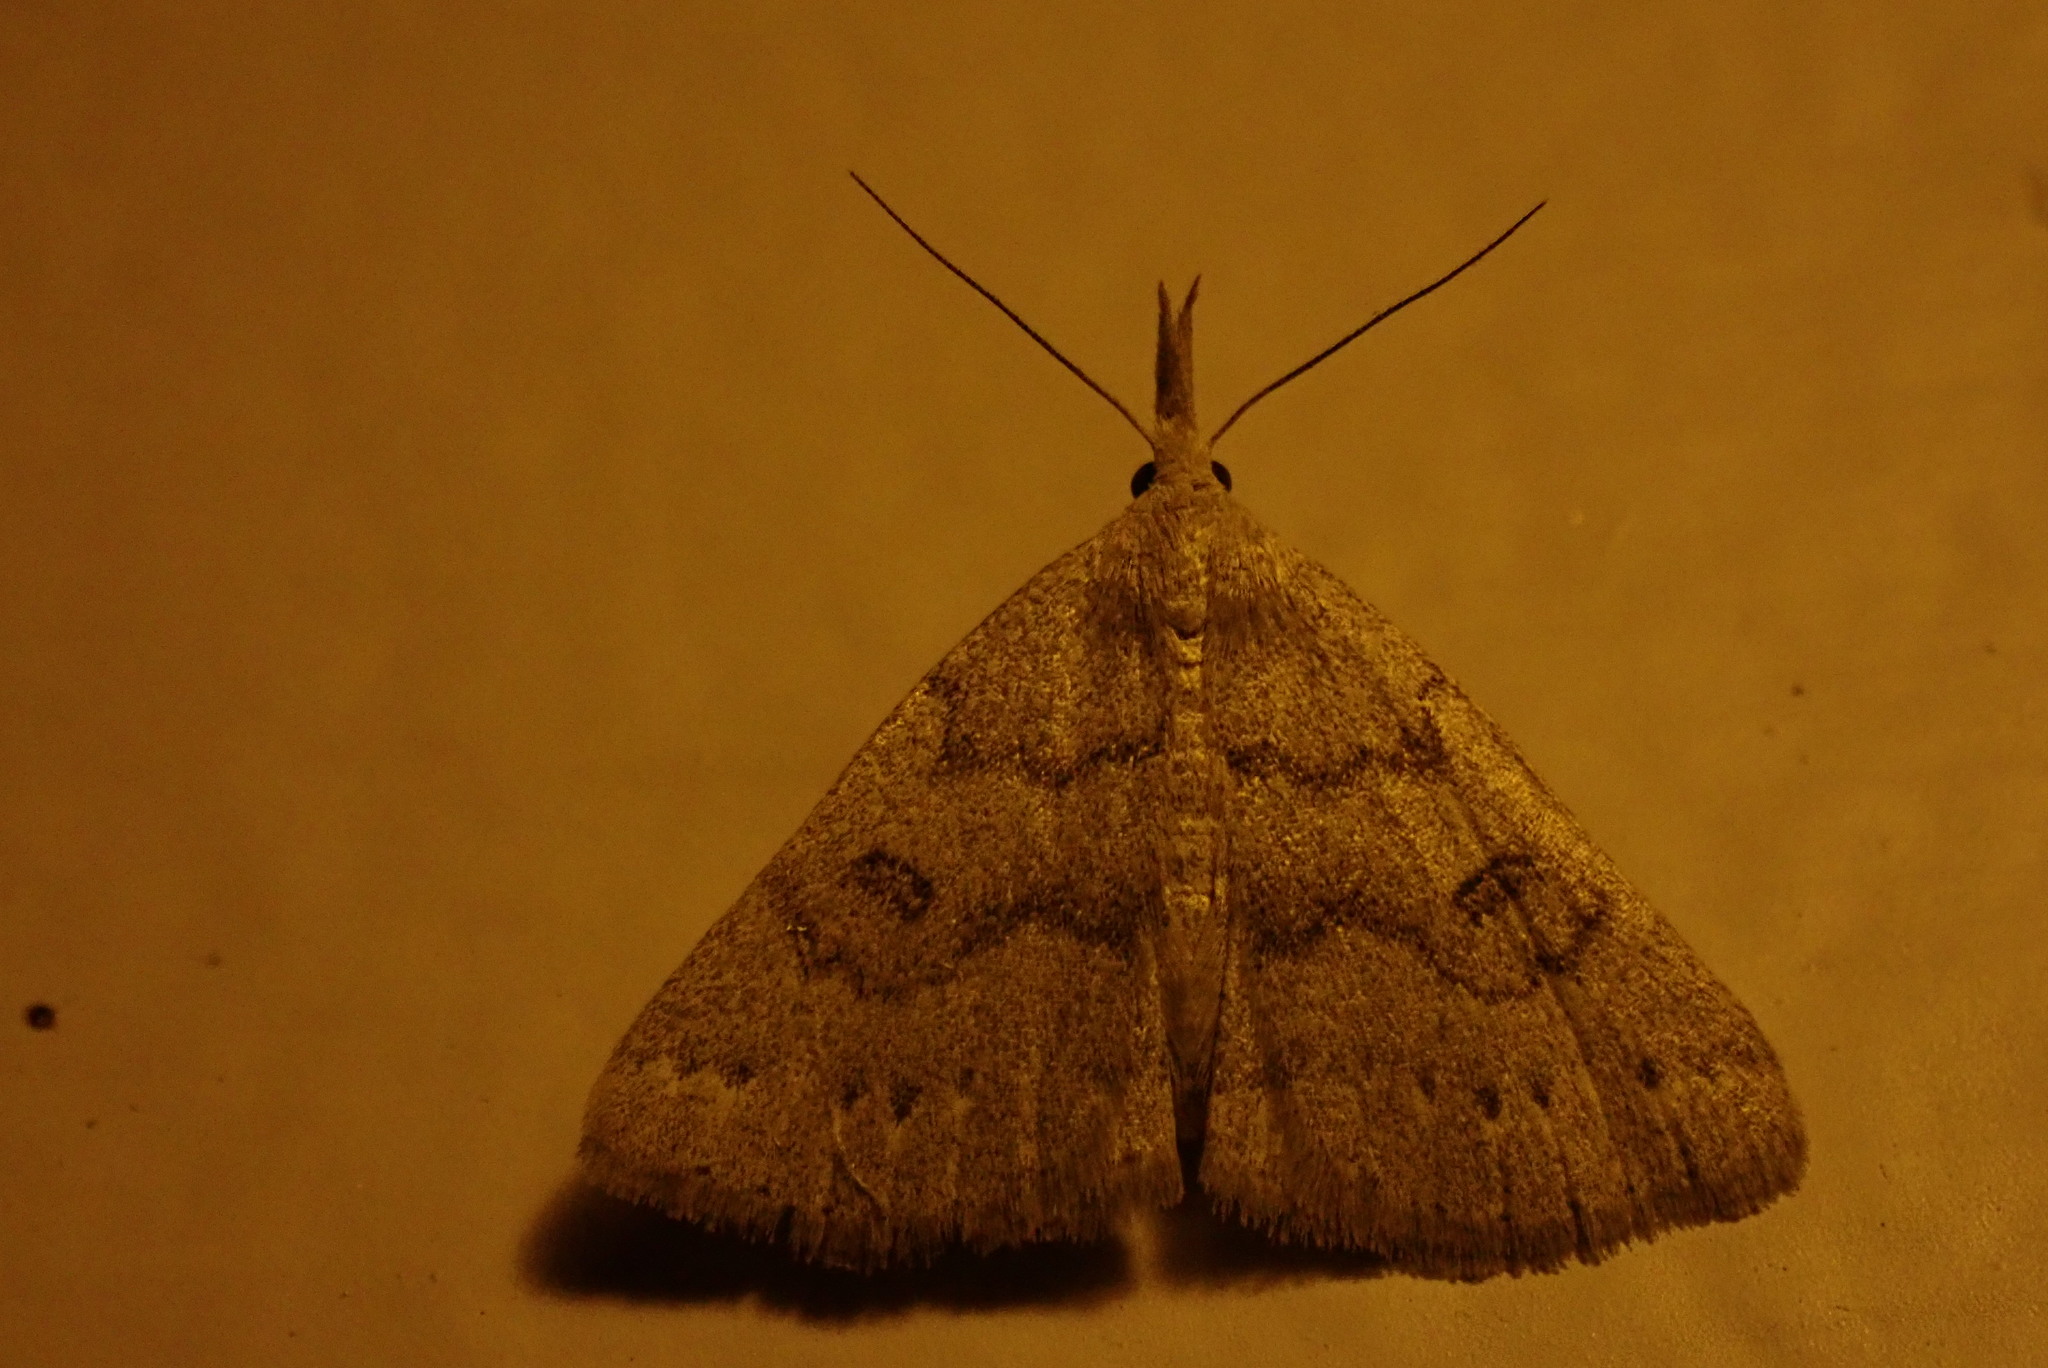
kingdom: Animalia
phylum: Arthropoda
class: Insecta
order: Lepidoptera
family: Erebidae
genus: Macrochilo
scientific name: Macrochilo morbidalis
